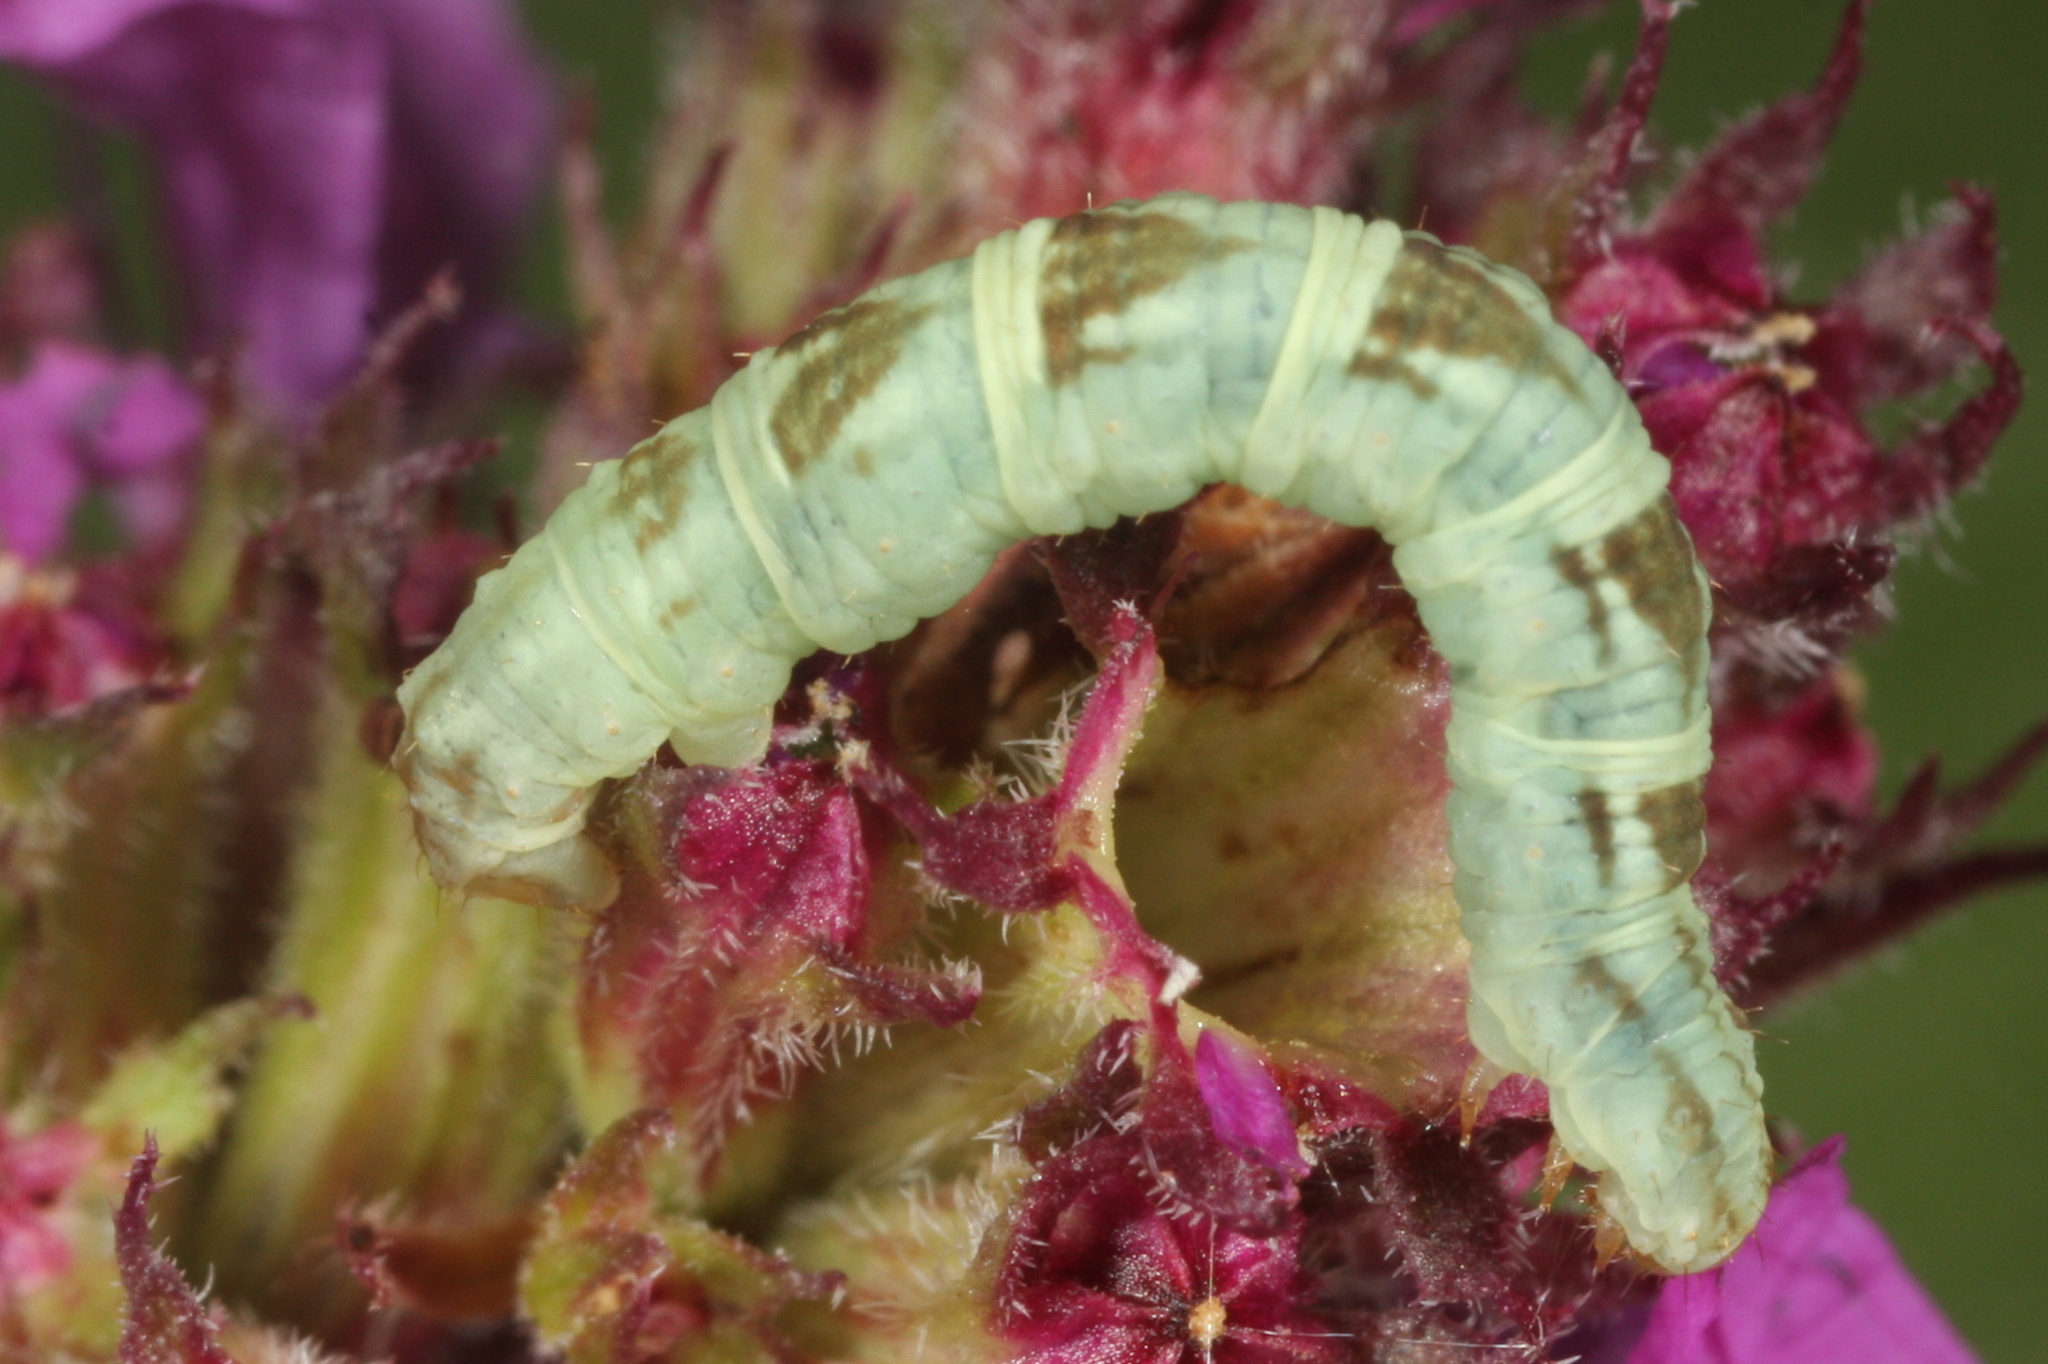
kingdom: Animalia
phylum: Arthropoda
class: Insecta
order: Lepidoptera
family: Geometridae
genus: Chloroclystis
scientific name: Chloroclystis v-ata
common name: V-pug
